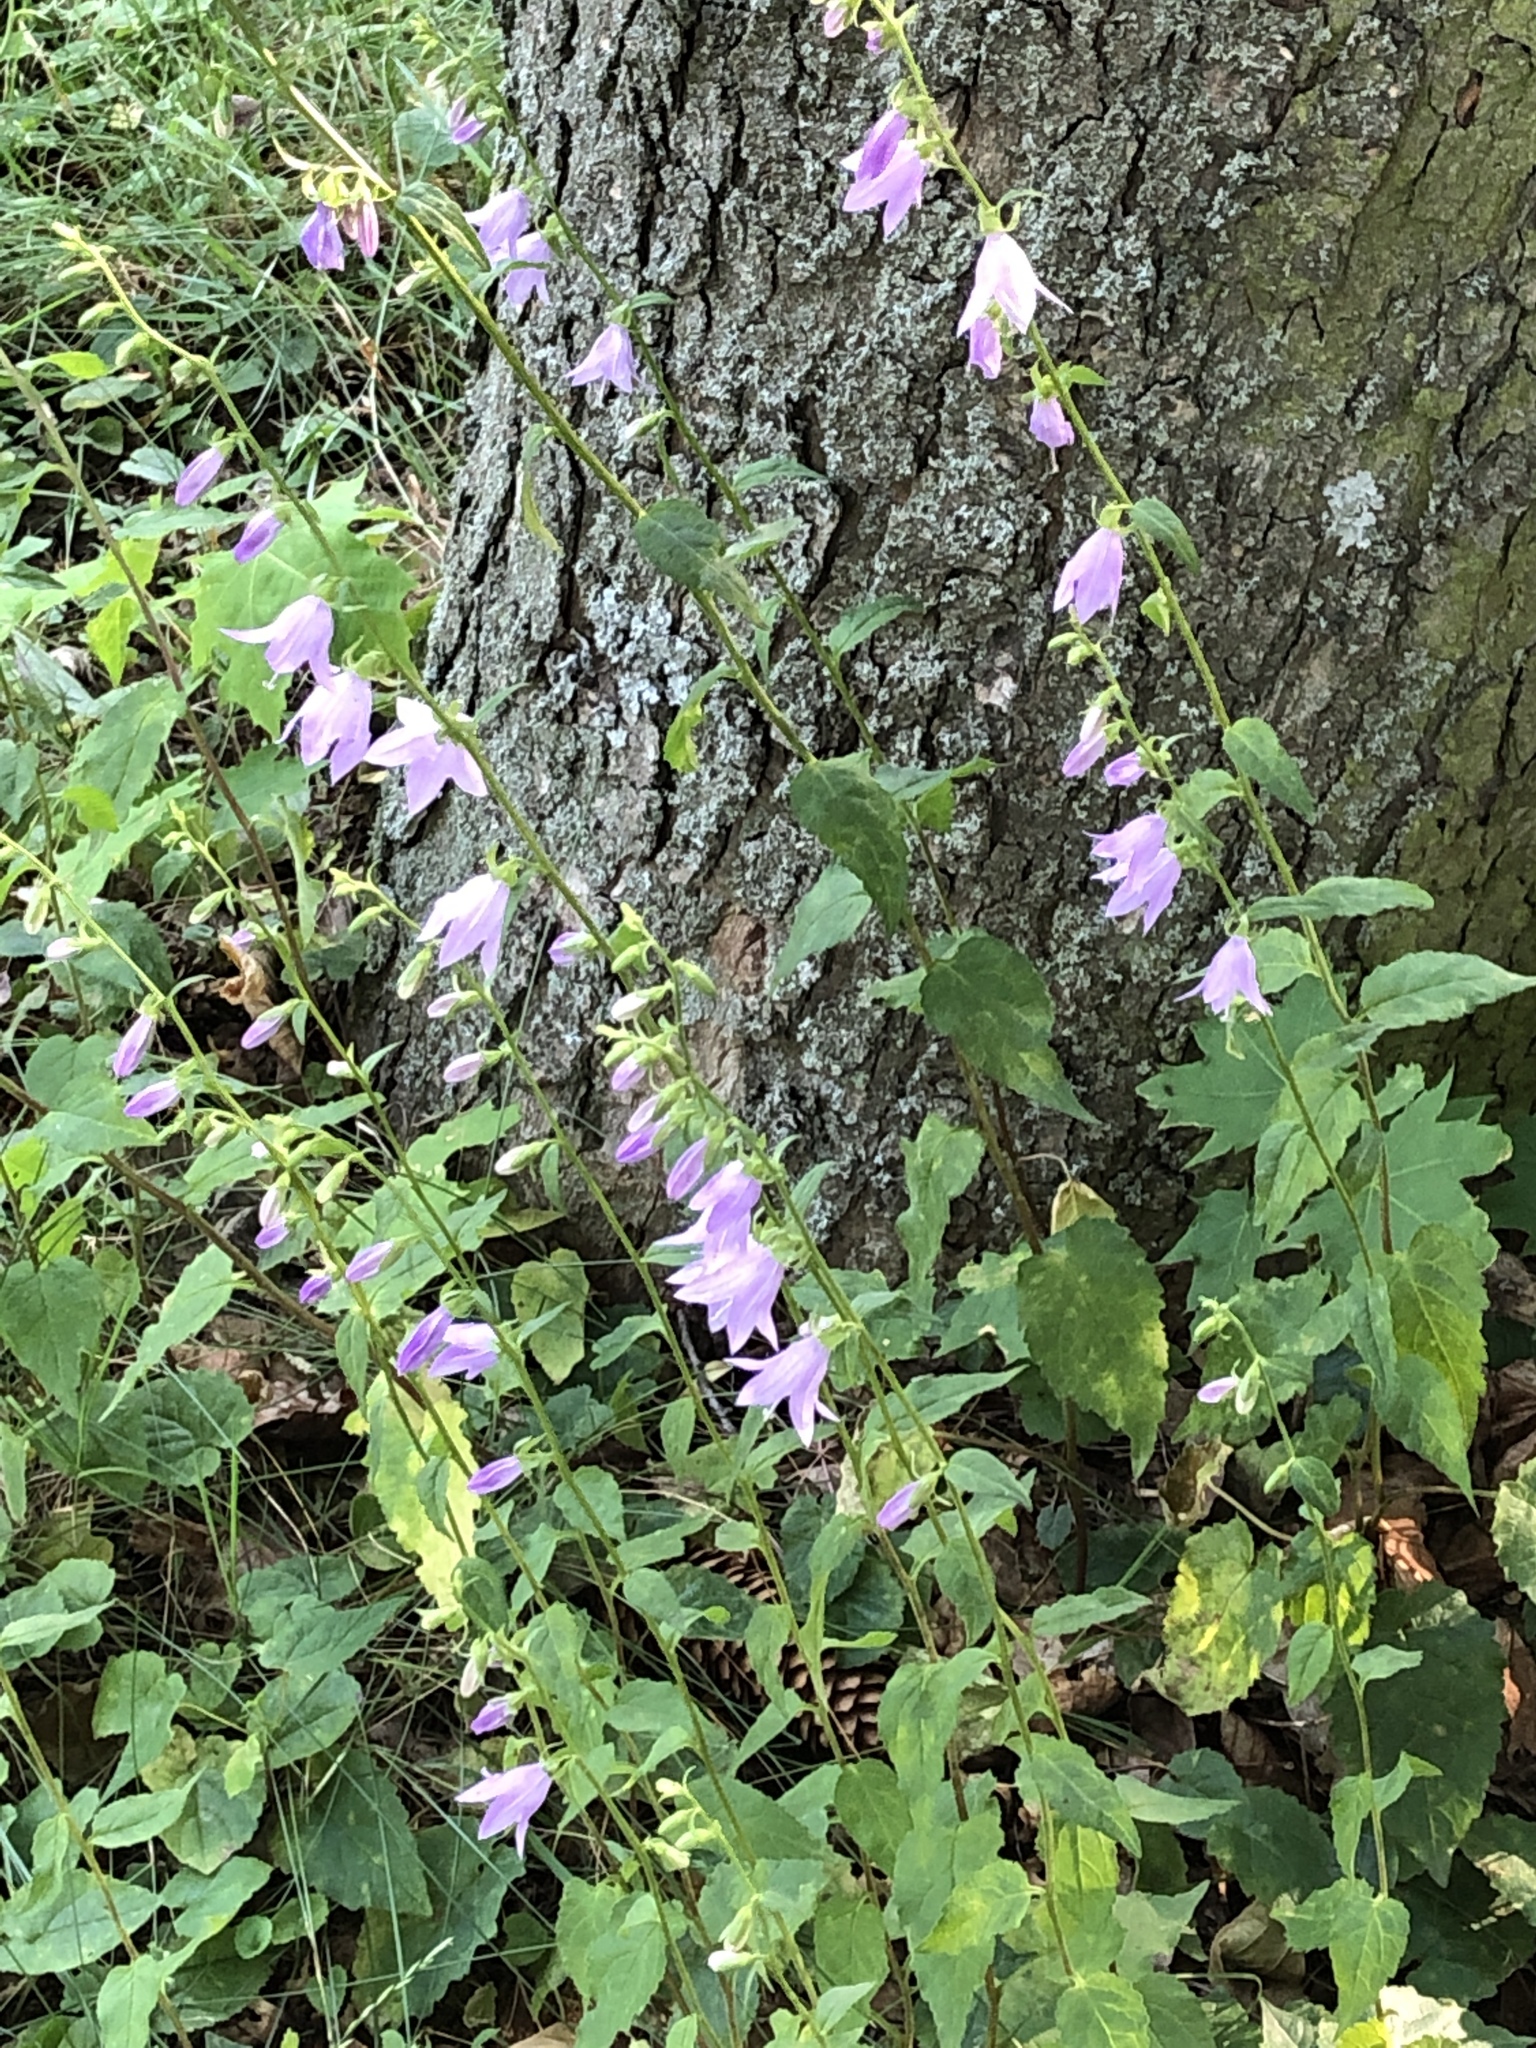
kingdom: Plantae
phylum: Tracheophyta
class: Magnoliopsida
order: Asterales
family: Campanulaceae
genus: Campanula
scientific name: Campanula rapunculoides
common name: Creeping bellflower
